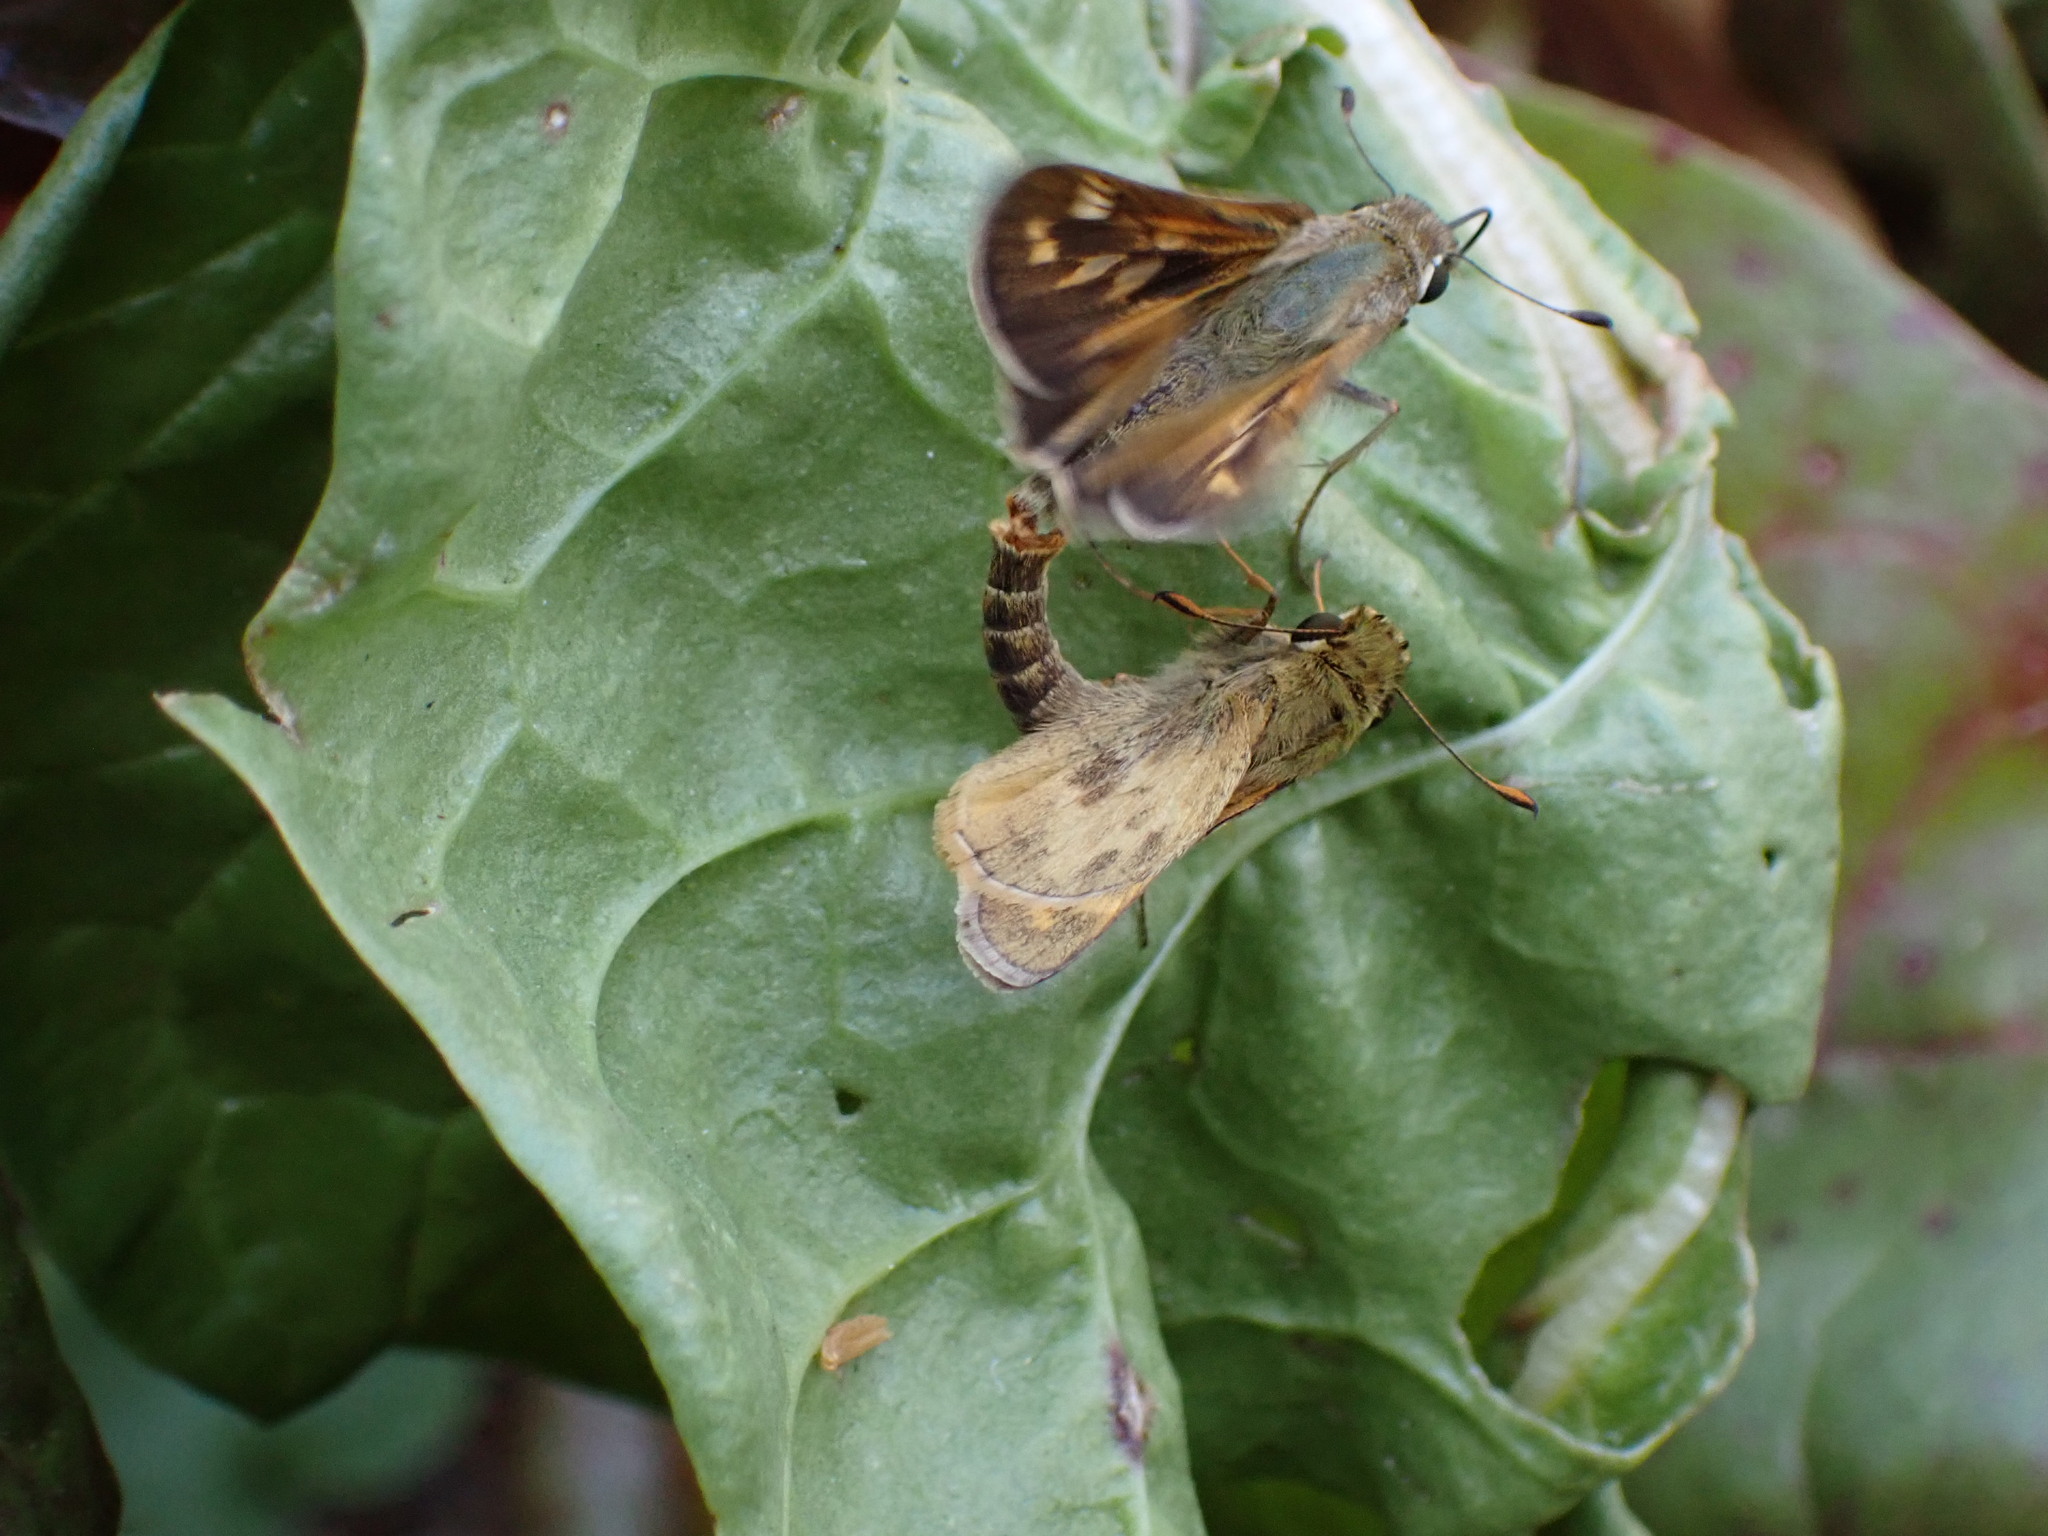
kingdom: Animalia
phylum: Arthropoda
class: Insecta
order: Lepidoptera
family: Hesperiidae
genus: Atalopedes
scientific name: Atalopedes
